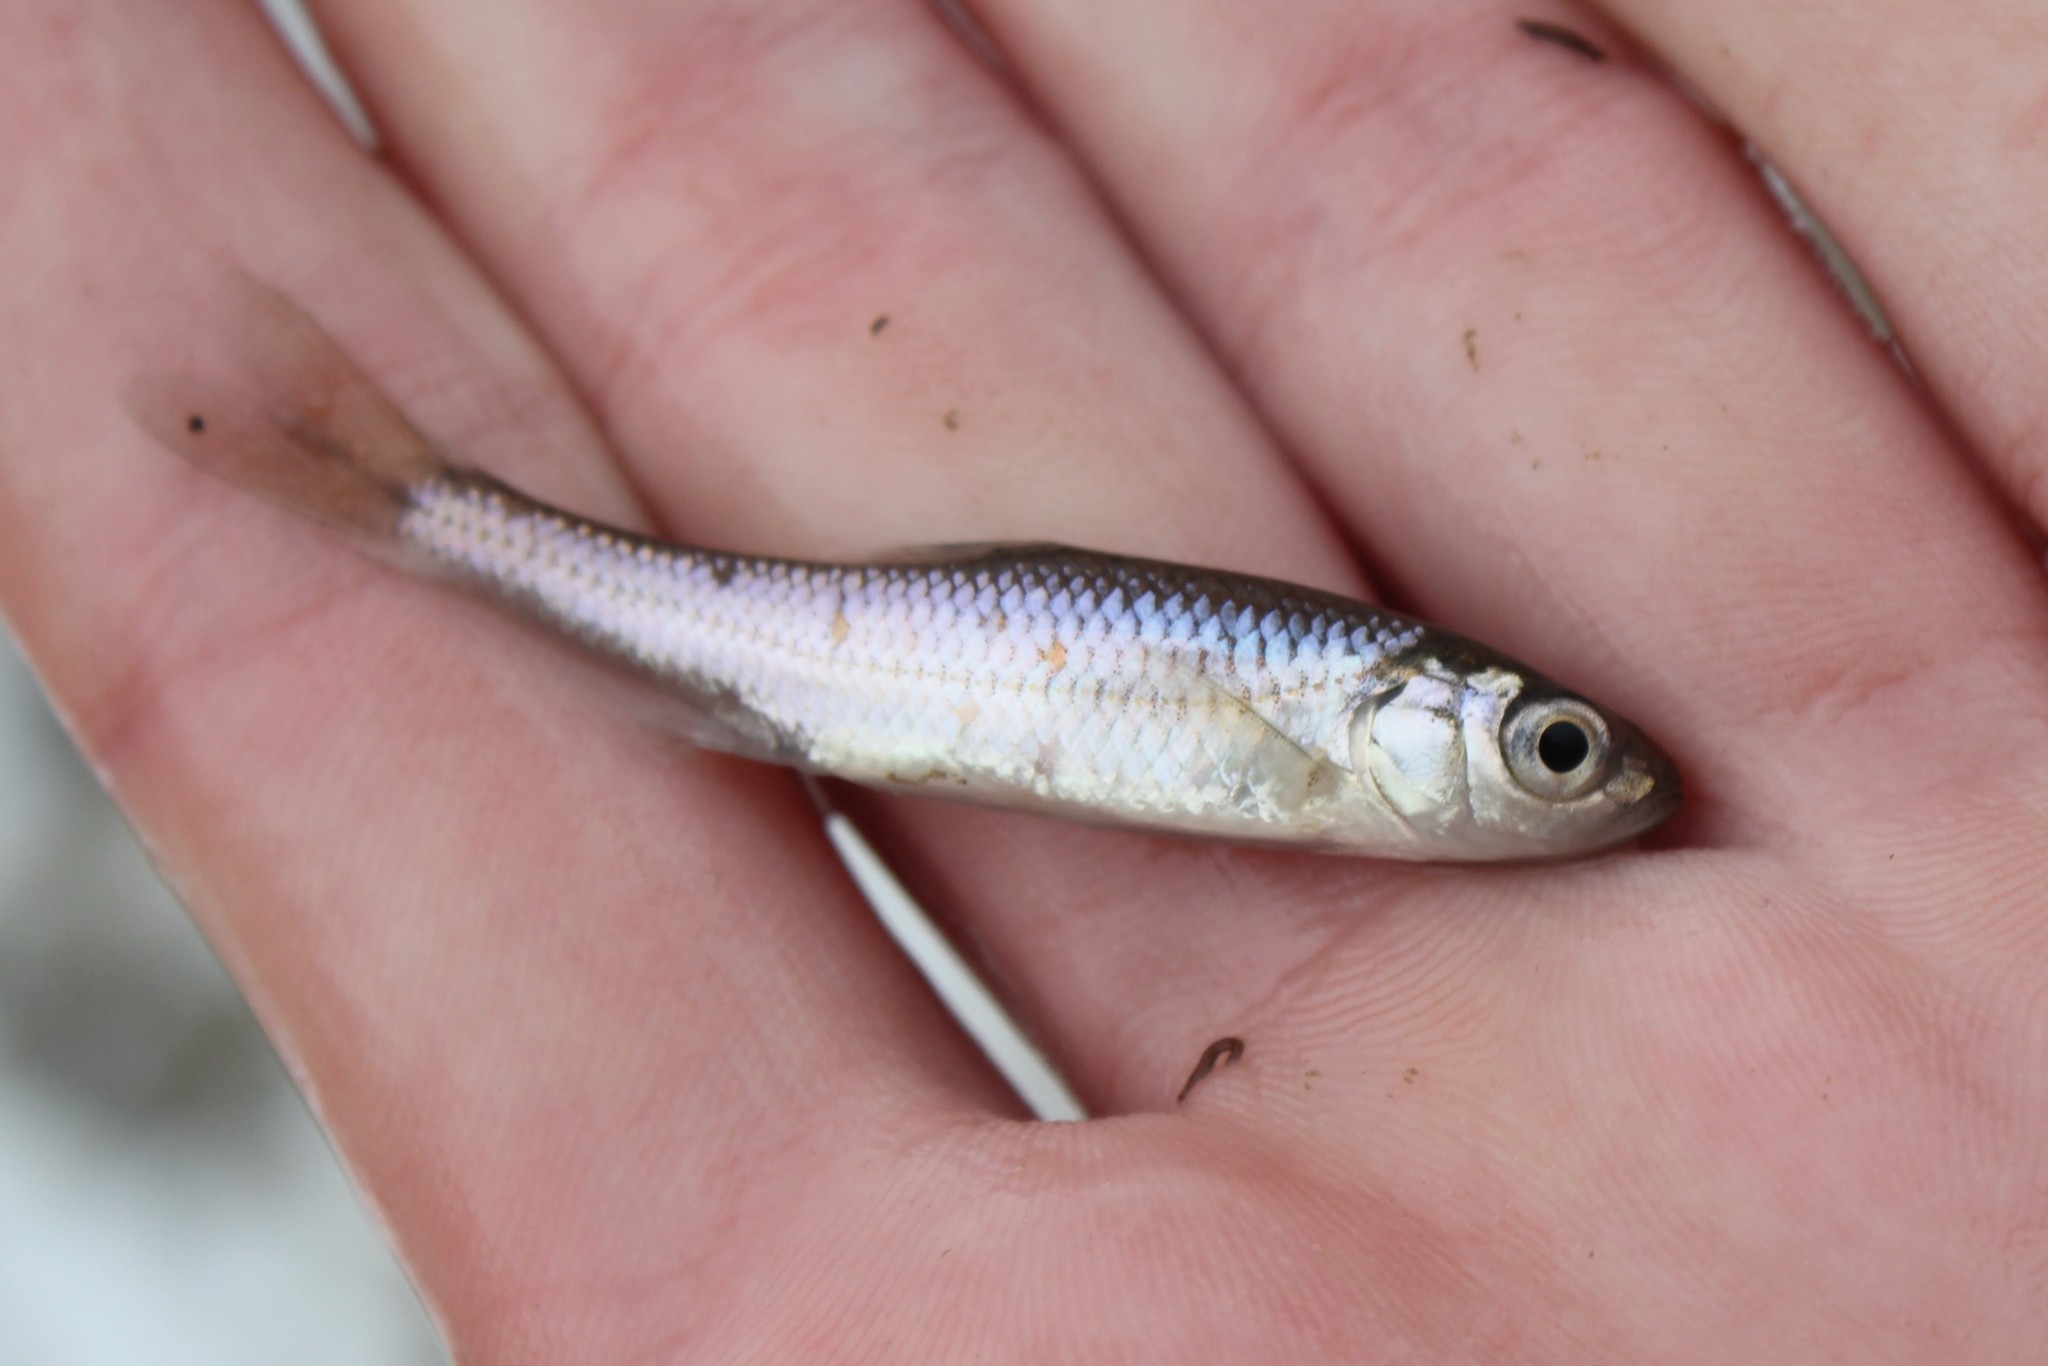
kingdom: Animalia
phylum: Chordata
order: Cypriniformes
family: Cyprinidae
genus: Luxilus
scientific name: Luxilus chrysocephalus
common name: Striped shiner
